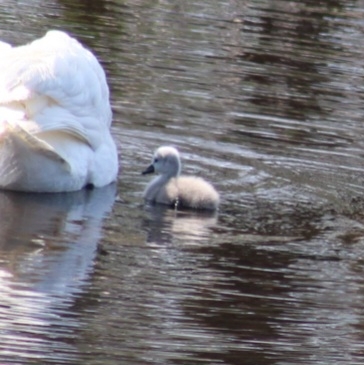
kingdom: Animalia
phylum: Chordata
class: Aves
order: Anseriformes
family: Anatidae
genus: Cygnus
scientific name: Cygnus olor
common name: Mute swan
